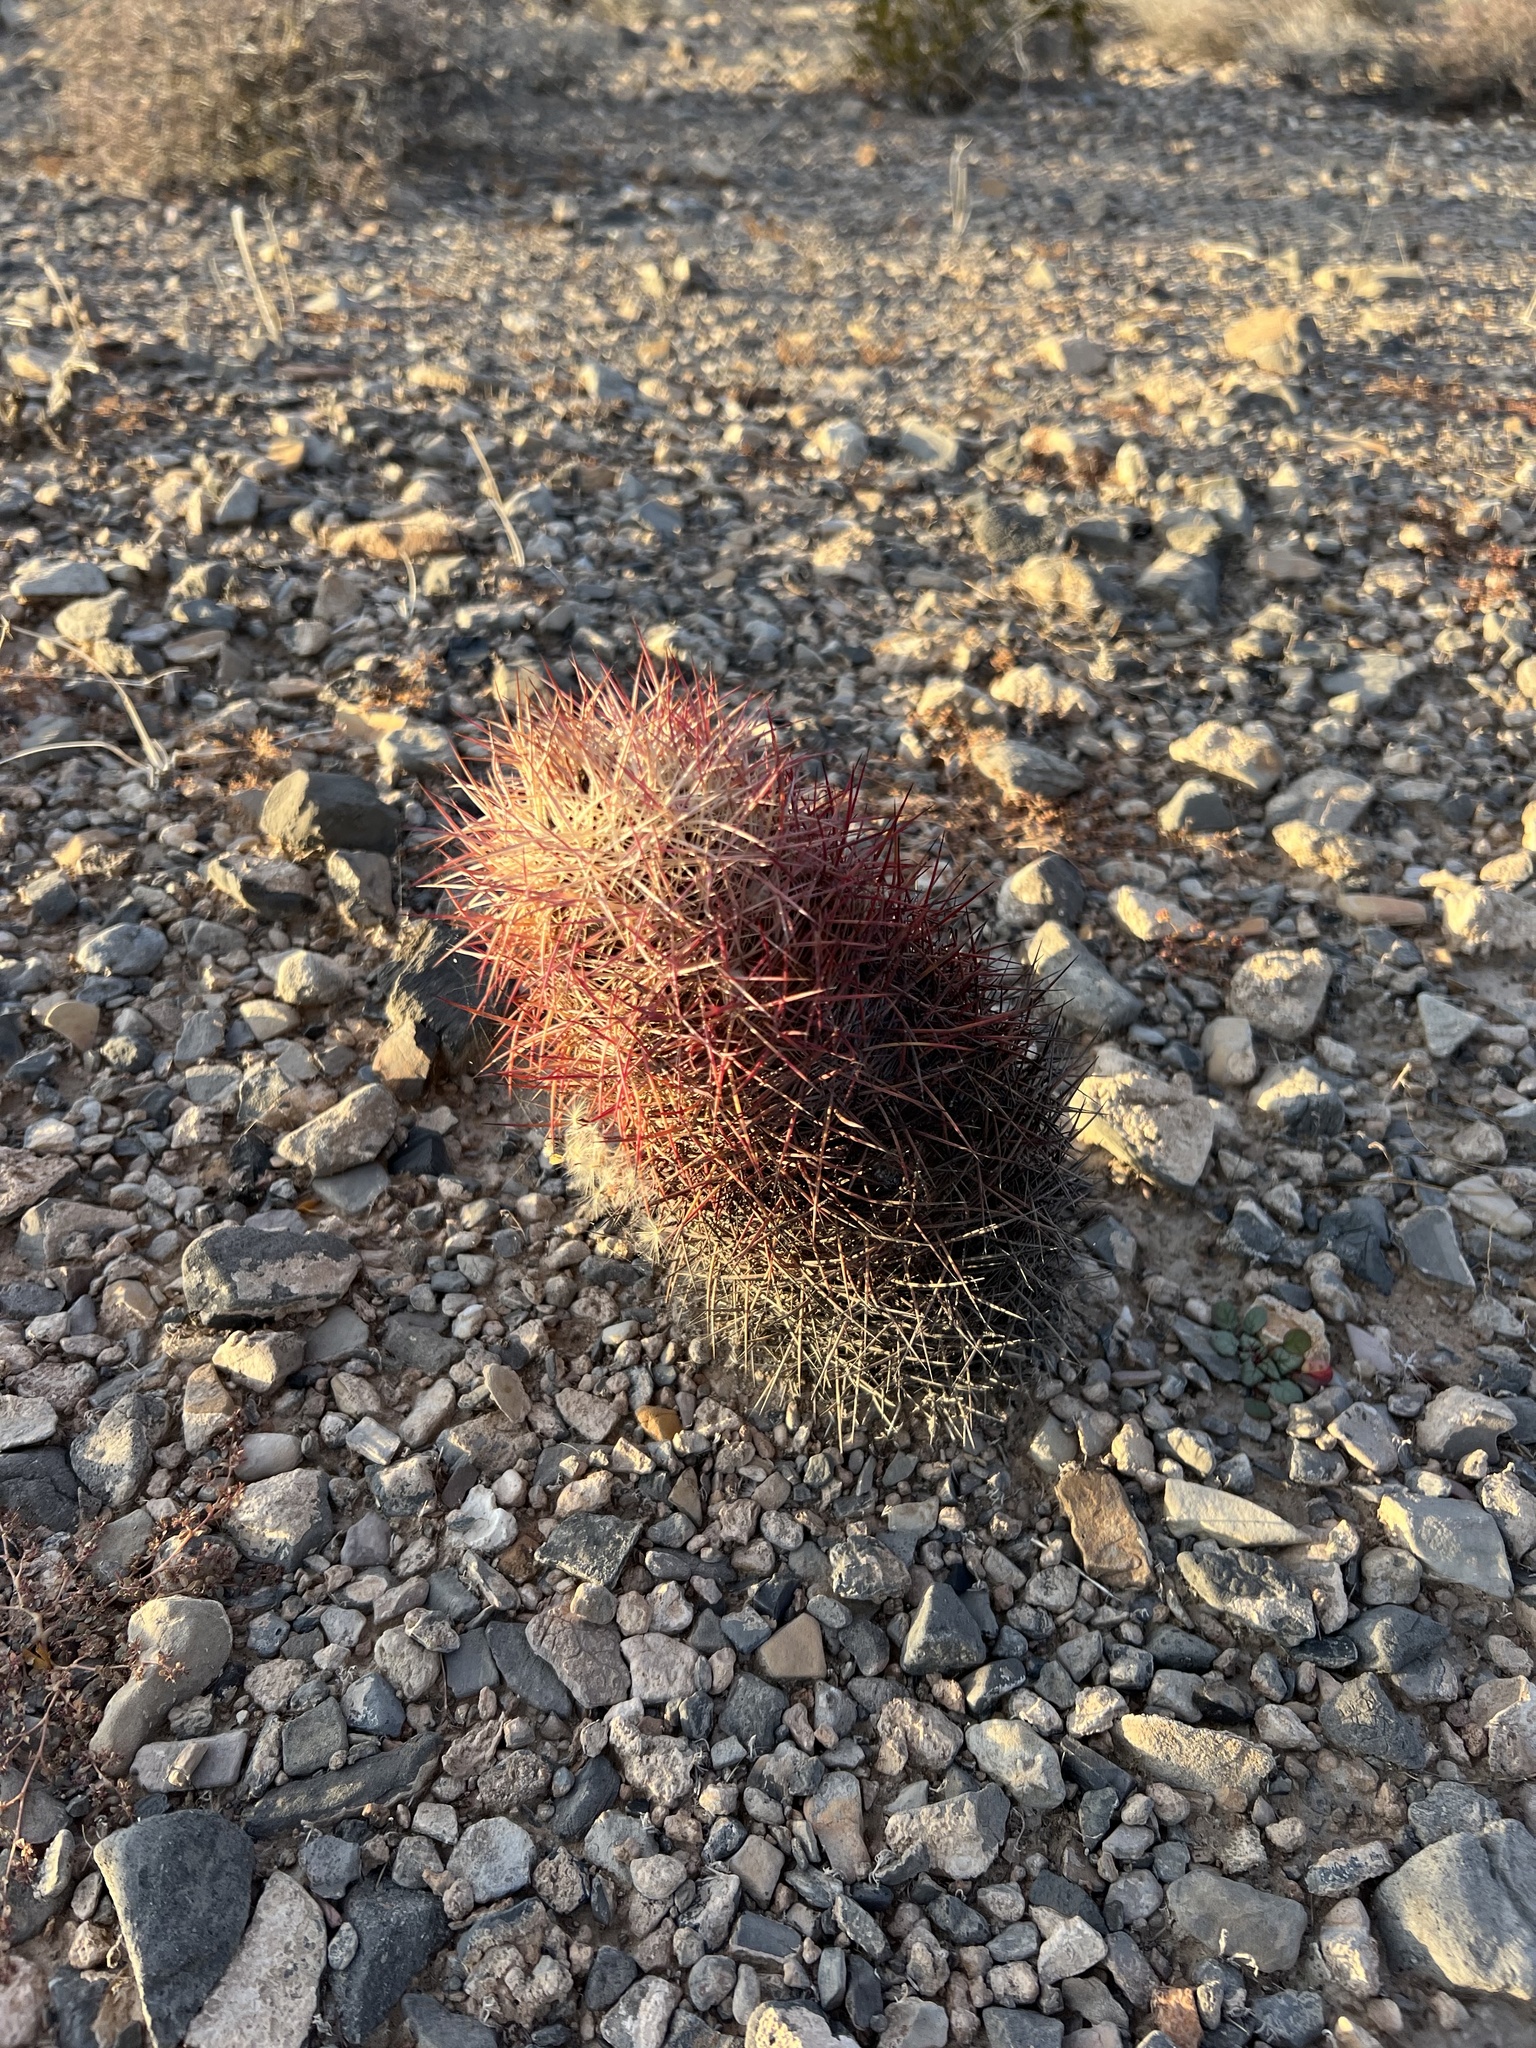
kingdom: Plantae
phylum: Tracheophyta
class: Magnoliopsida
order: Caryophyllales
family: Cactaceae
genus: Sclerocactus
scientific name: Sclerocactus johnsonii
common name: Eight-spine fishhook cactus
